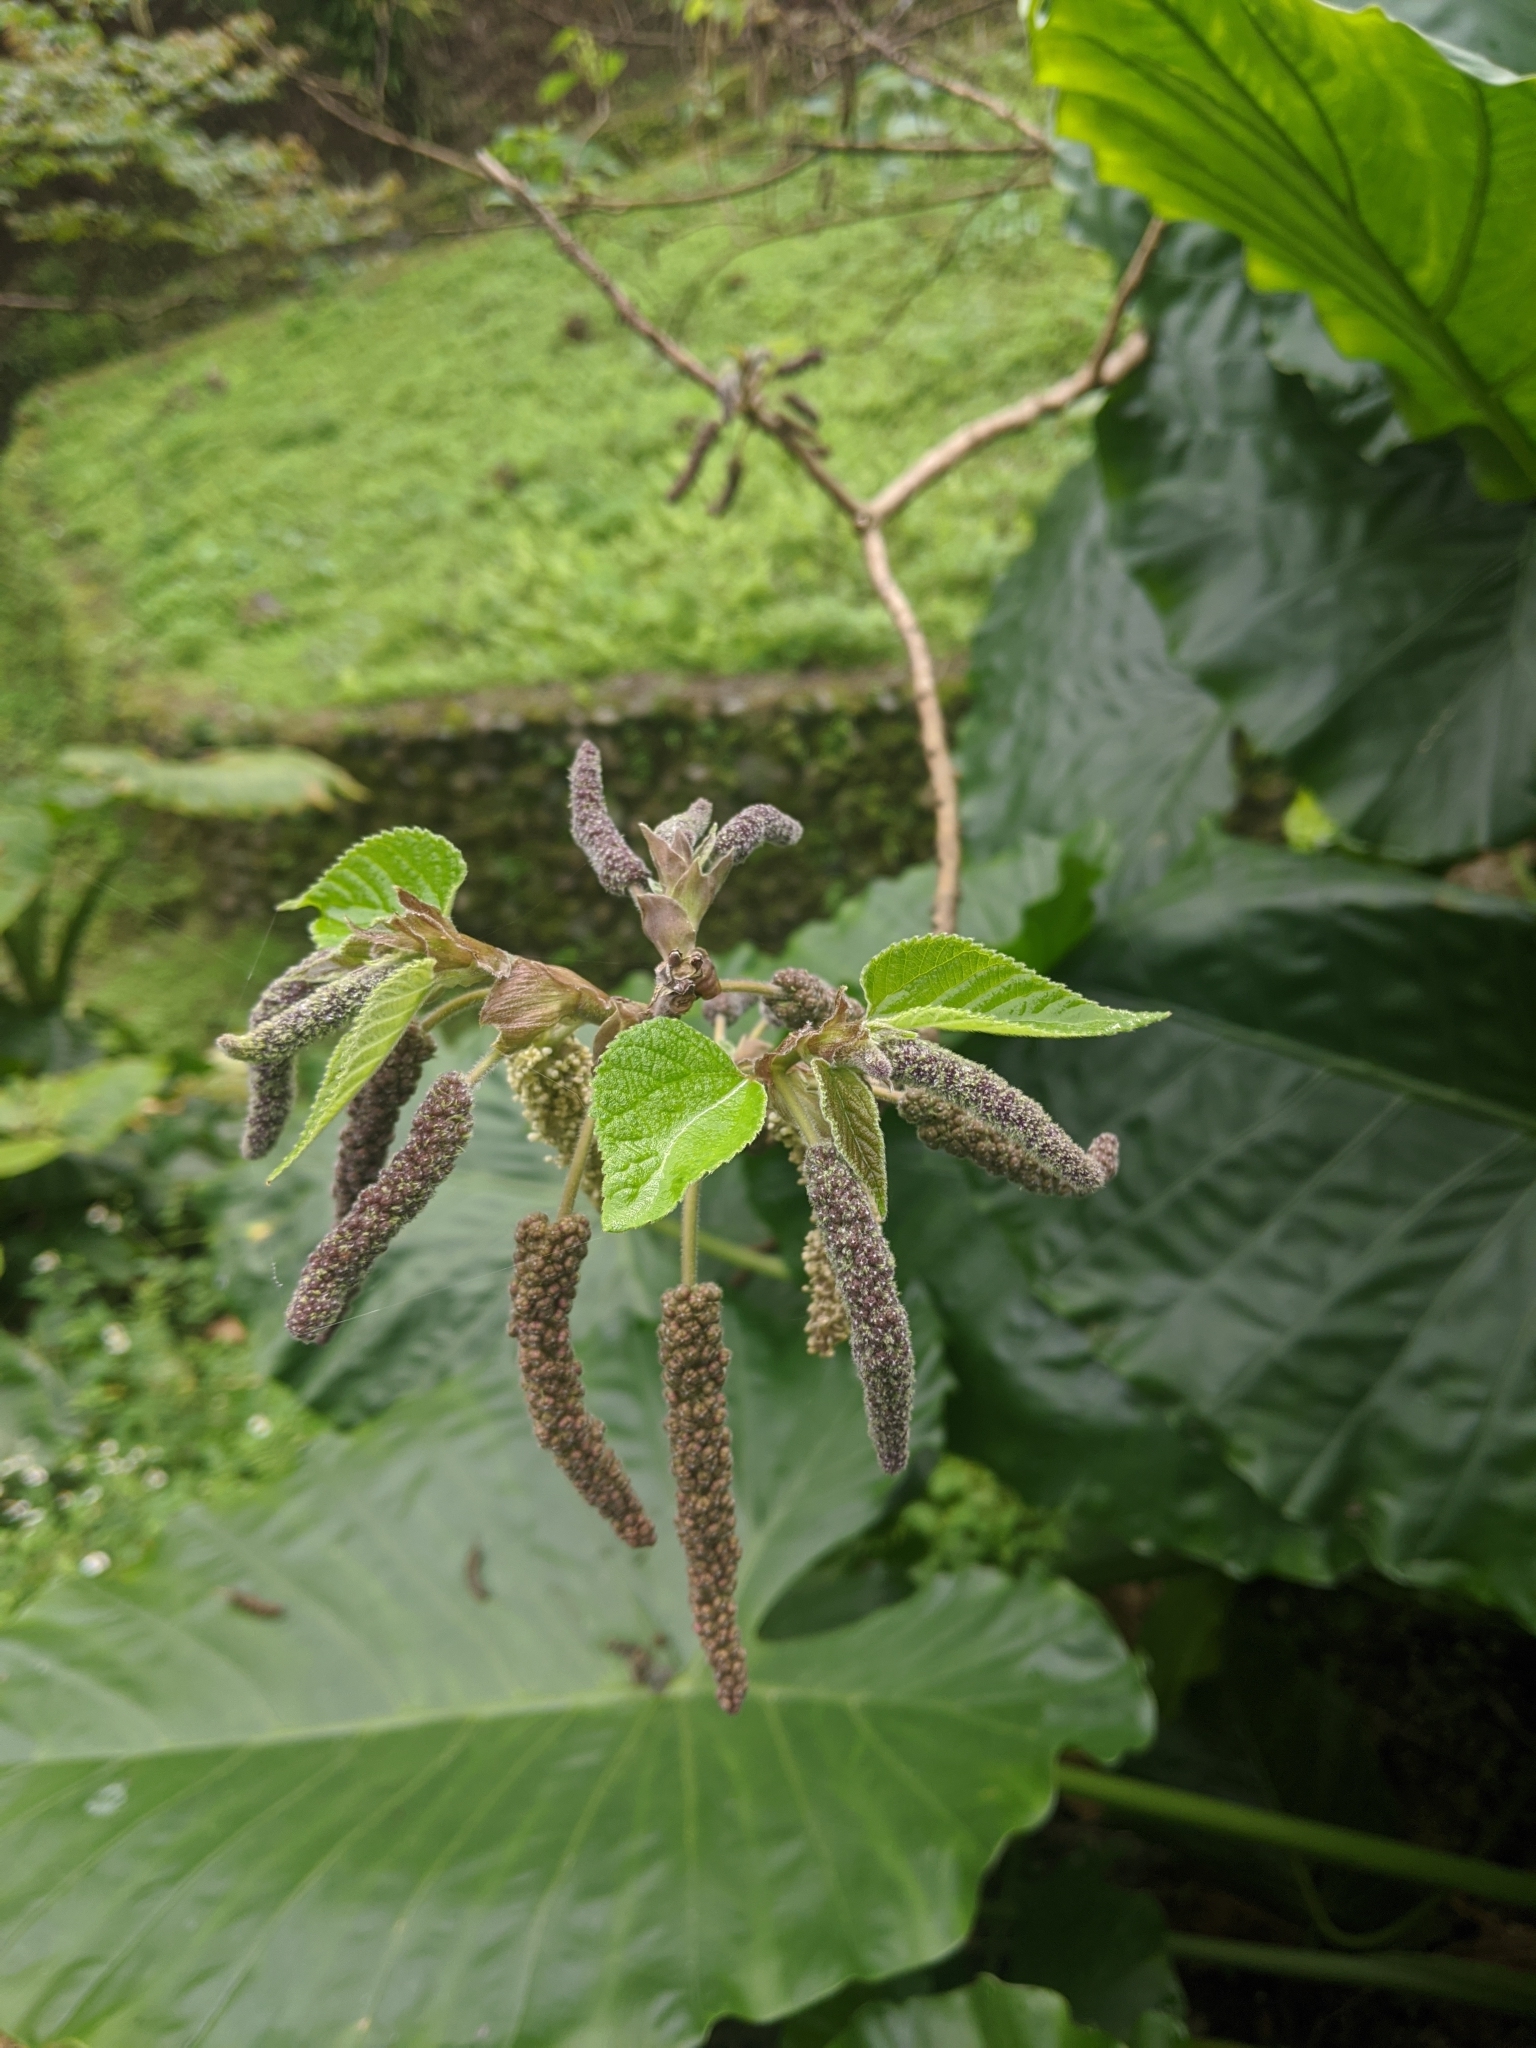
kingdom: Plantae
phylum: Tracheophyta
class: Magnoliopsida
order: Rosales
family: Moraceae
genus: Broussonetia
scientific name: Broussonetia papyrifera
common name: Paper mulberry
